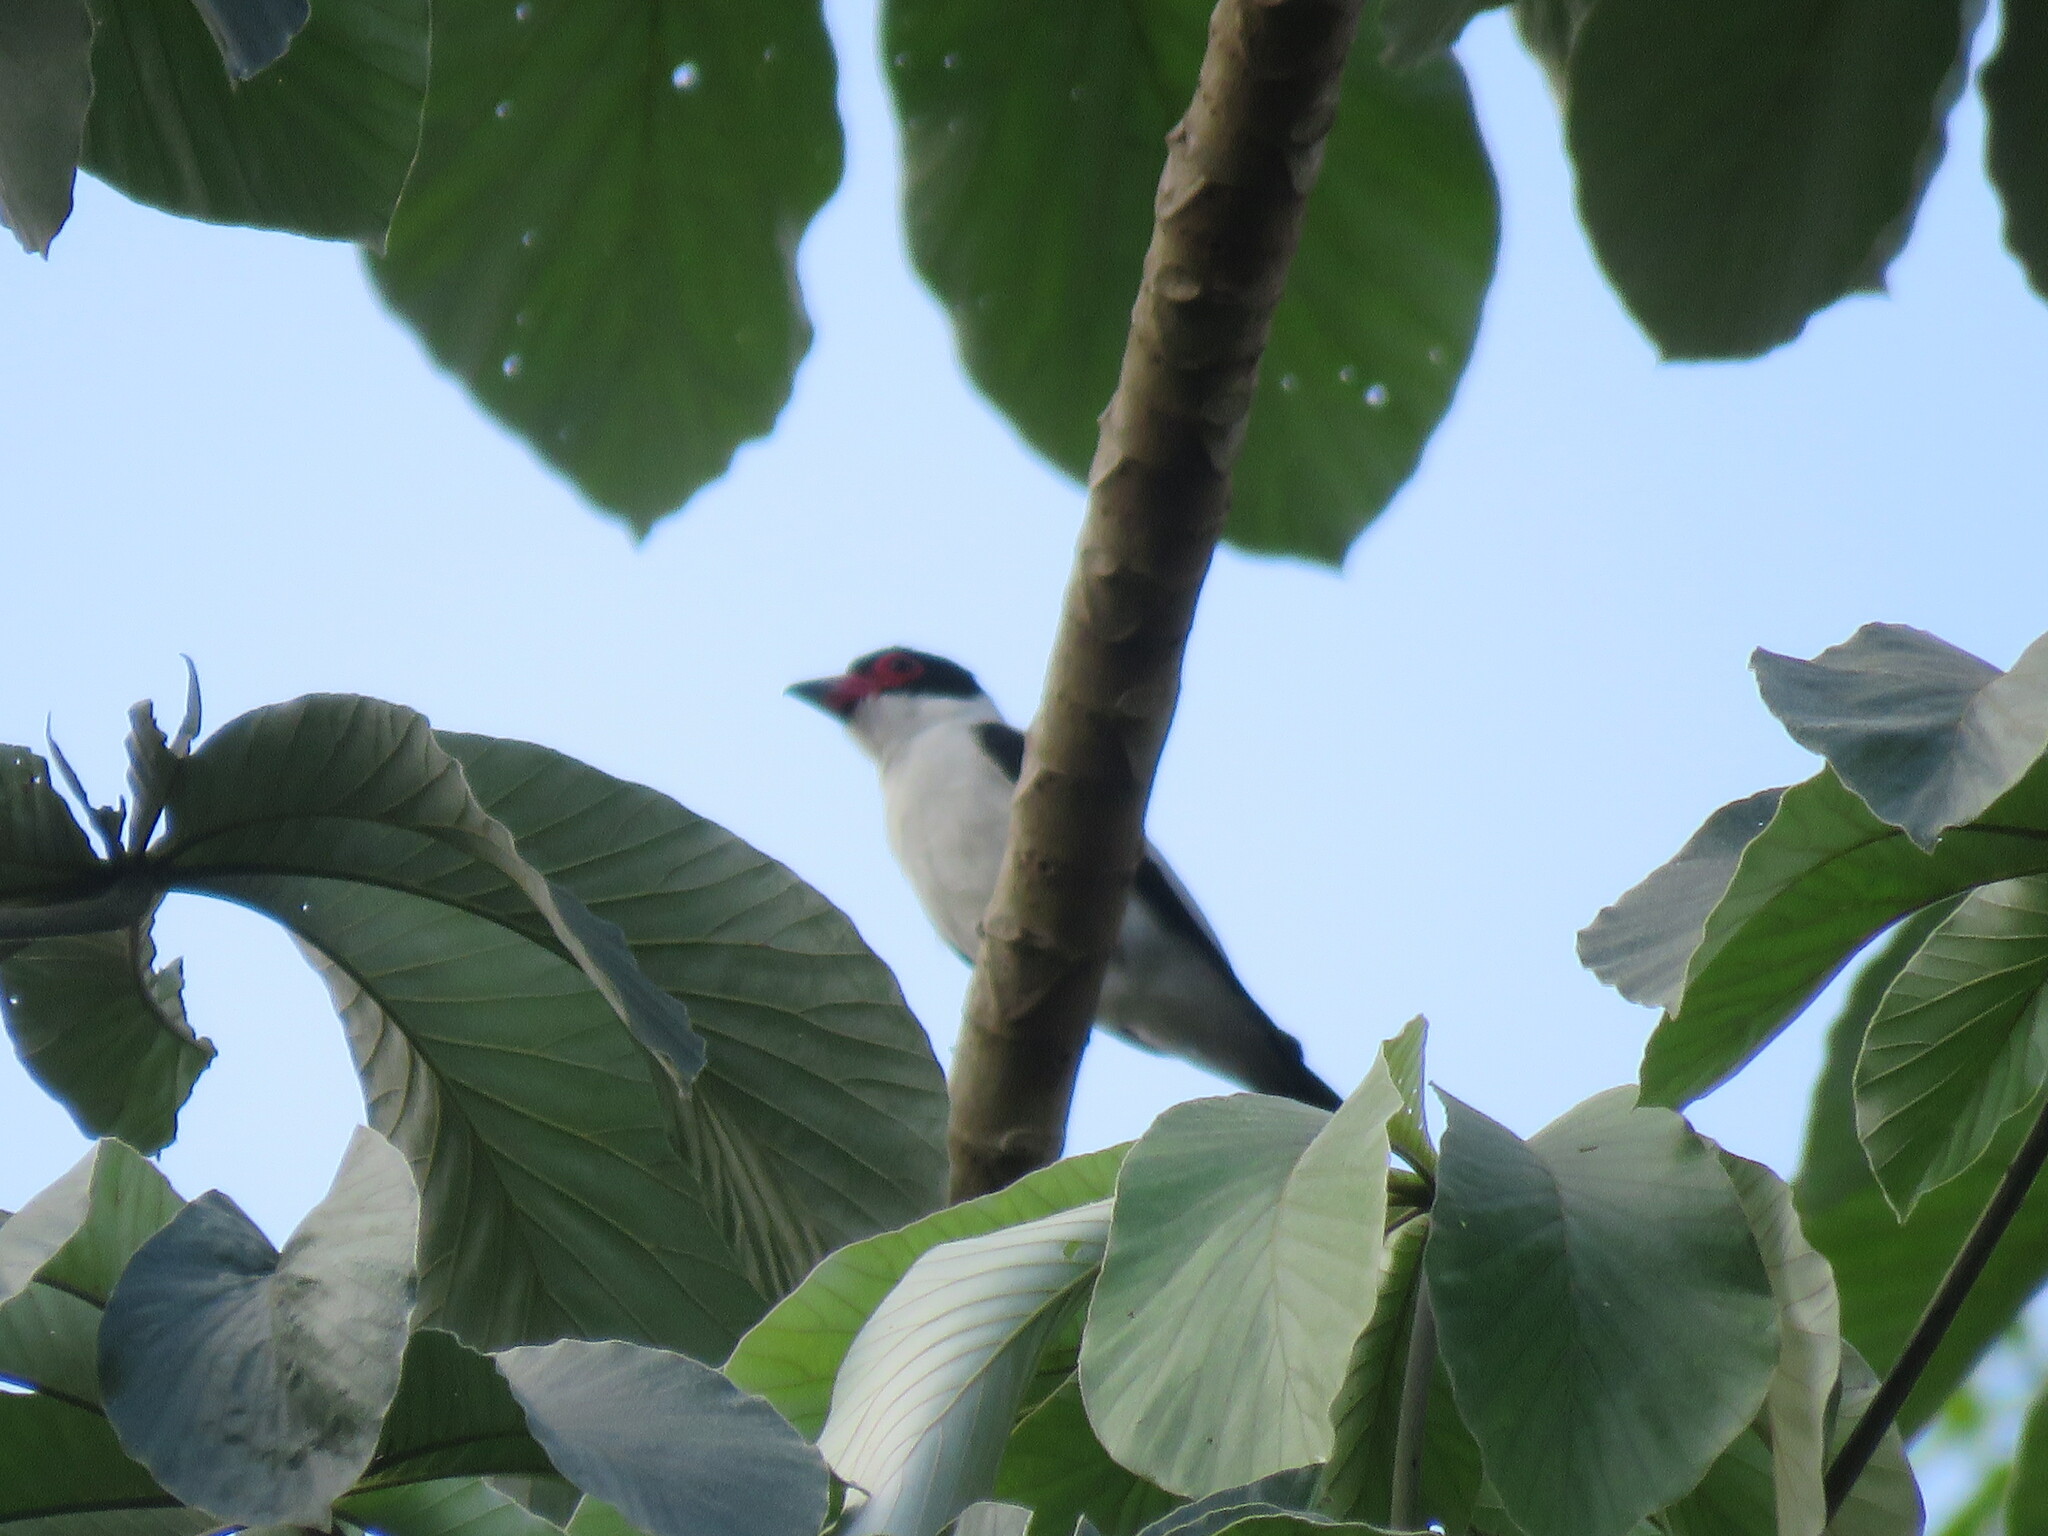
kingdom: Animalia
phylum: Chordata
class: Aves
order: Passeriformes
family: Cotingidae
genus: Tityra
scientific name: Tityra cayana
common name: Black-tailed tityra
